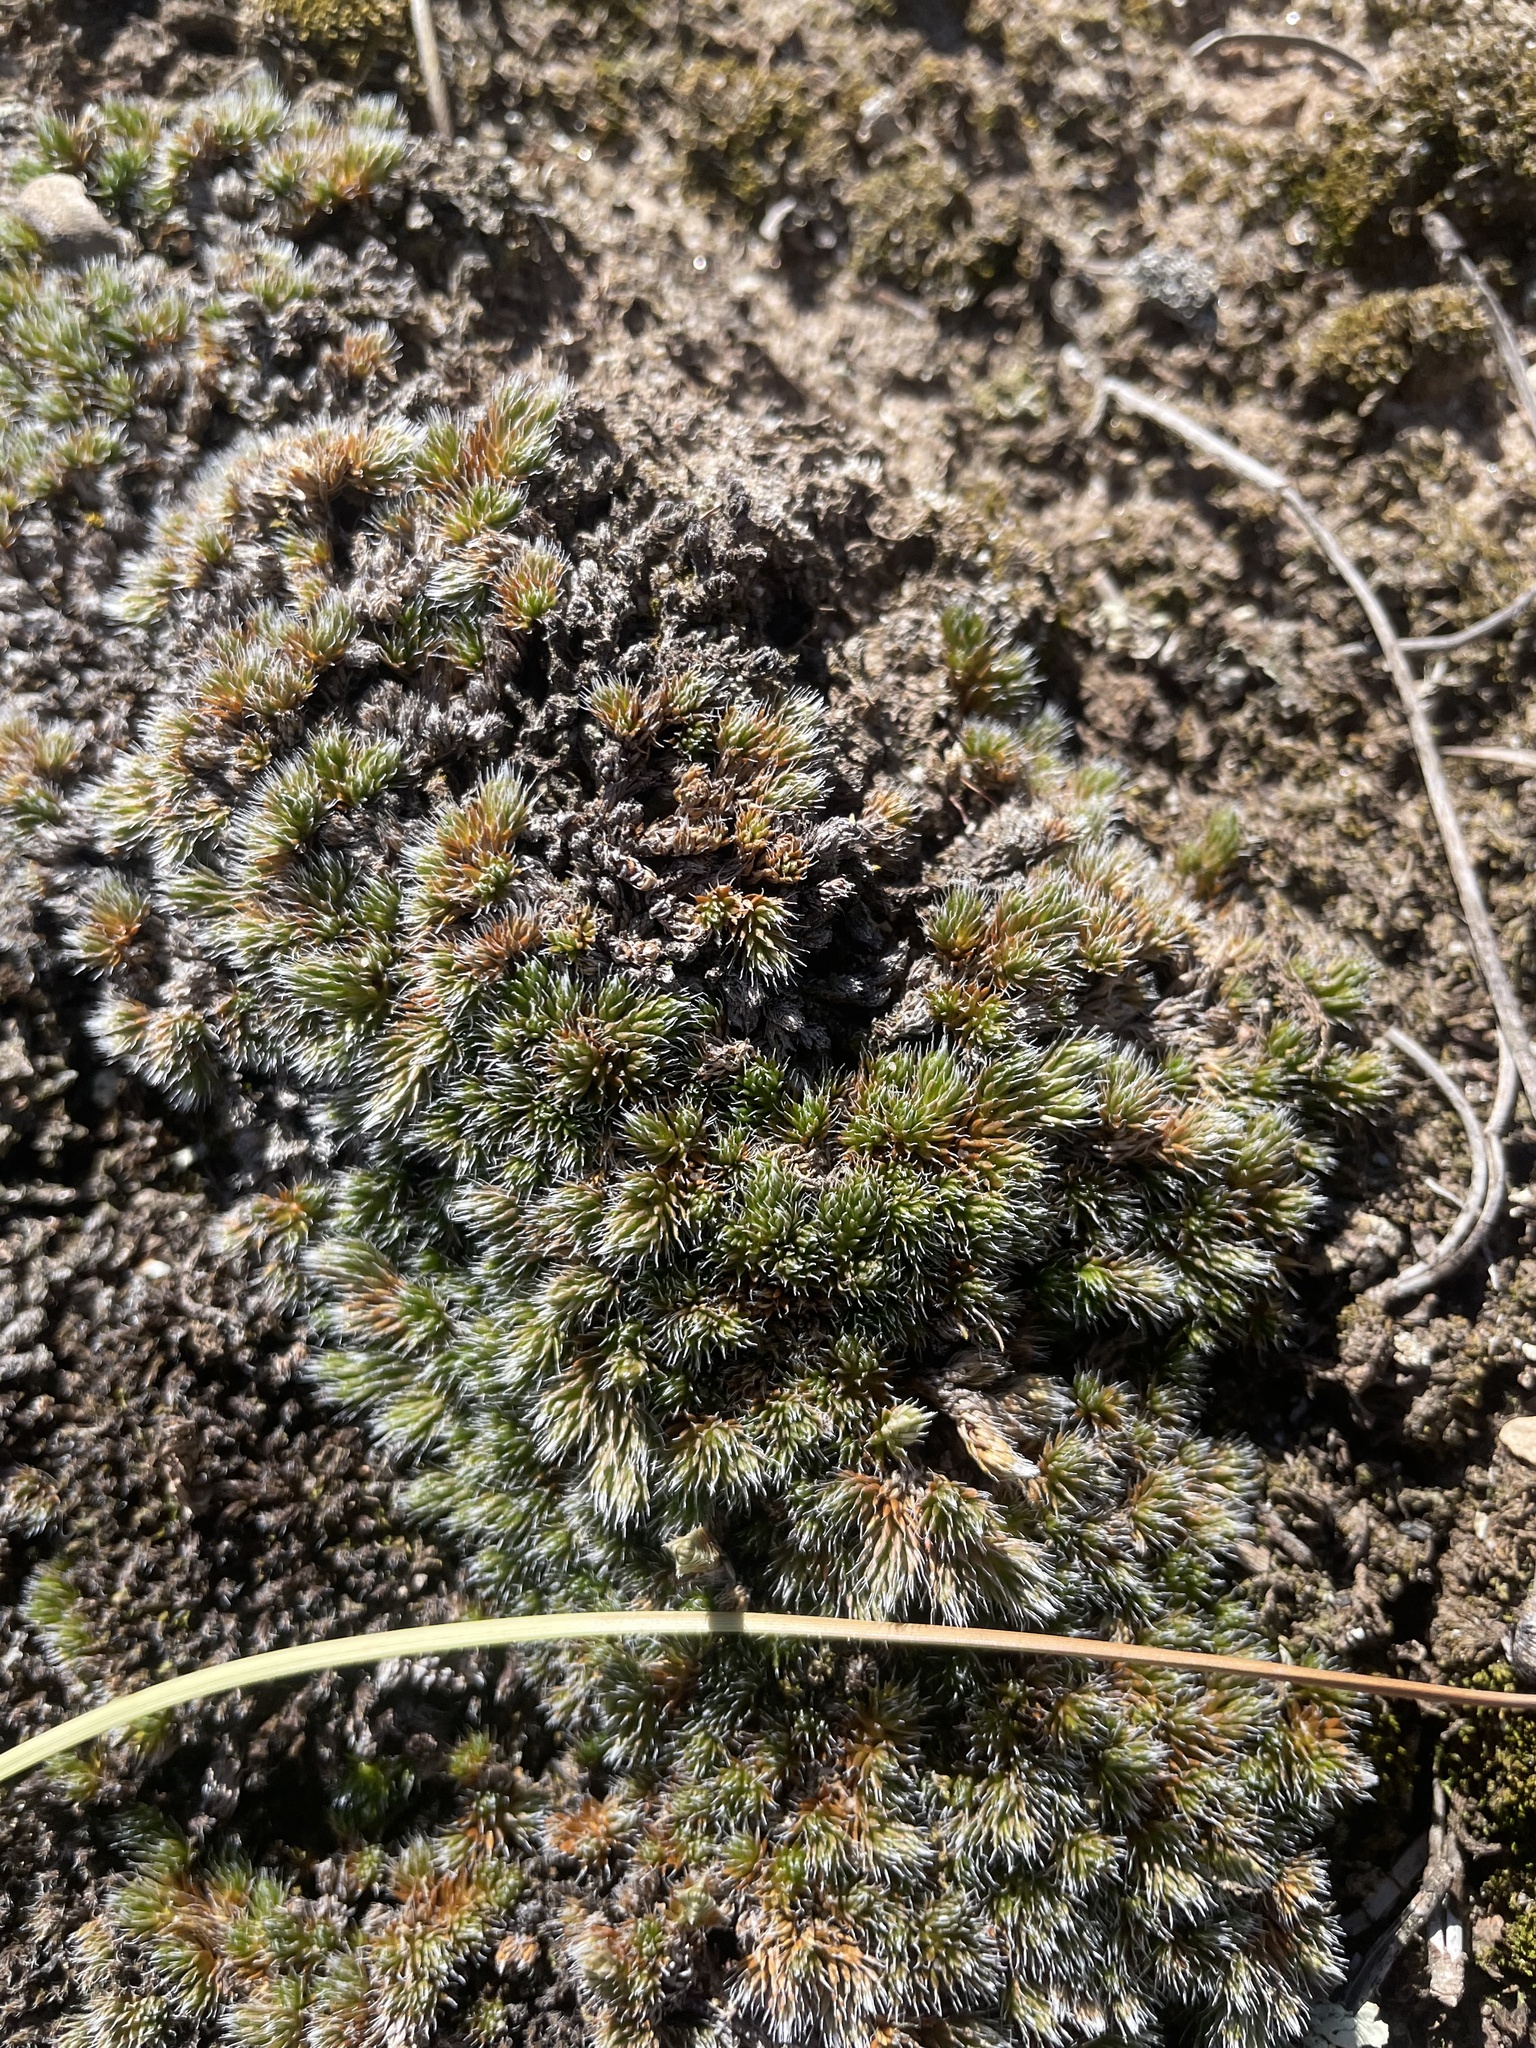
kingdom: Plantae
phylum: Tracheophyta
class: Lycopodiopsida
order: Selaginellales
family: Selaginellaceae
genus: Selaginella
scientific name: Selaginella densa
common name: Mountain spike-moss
